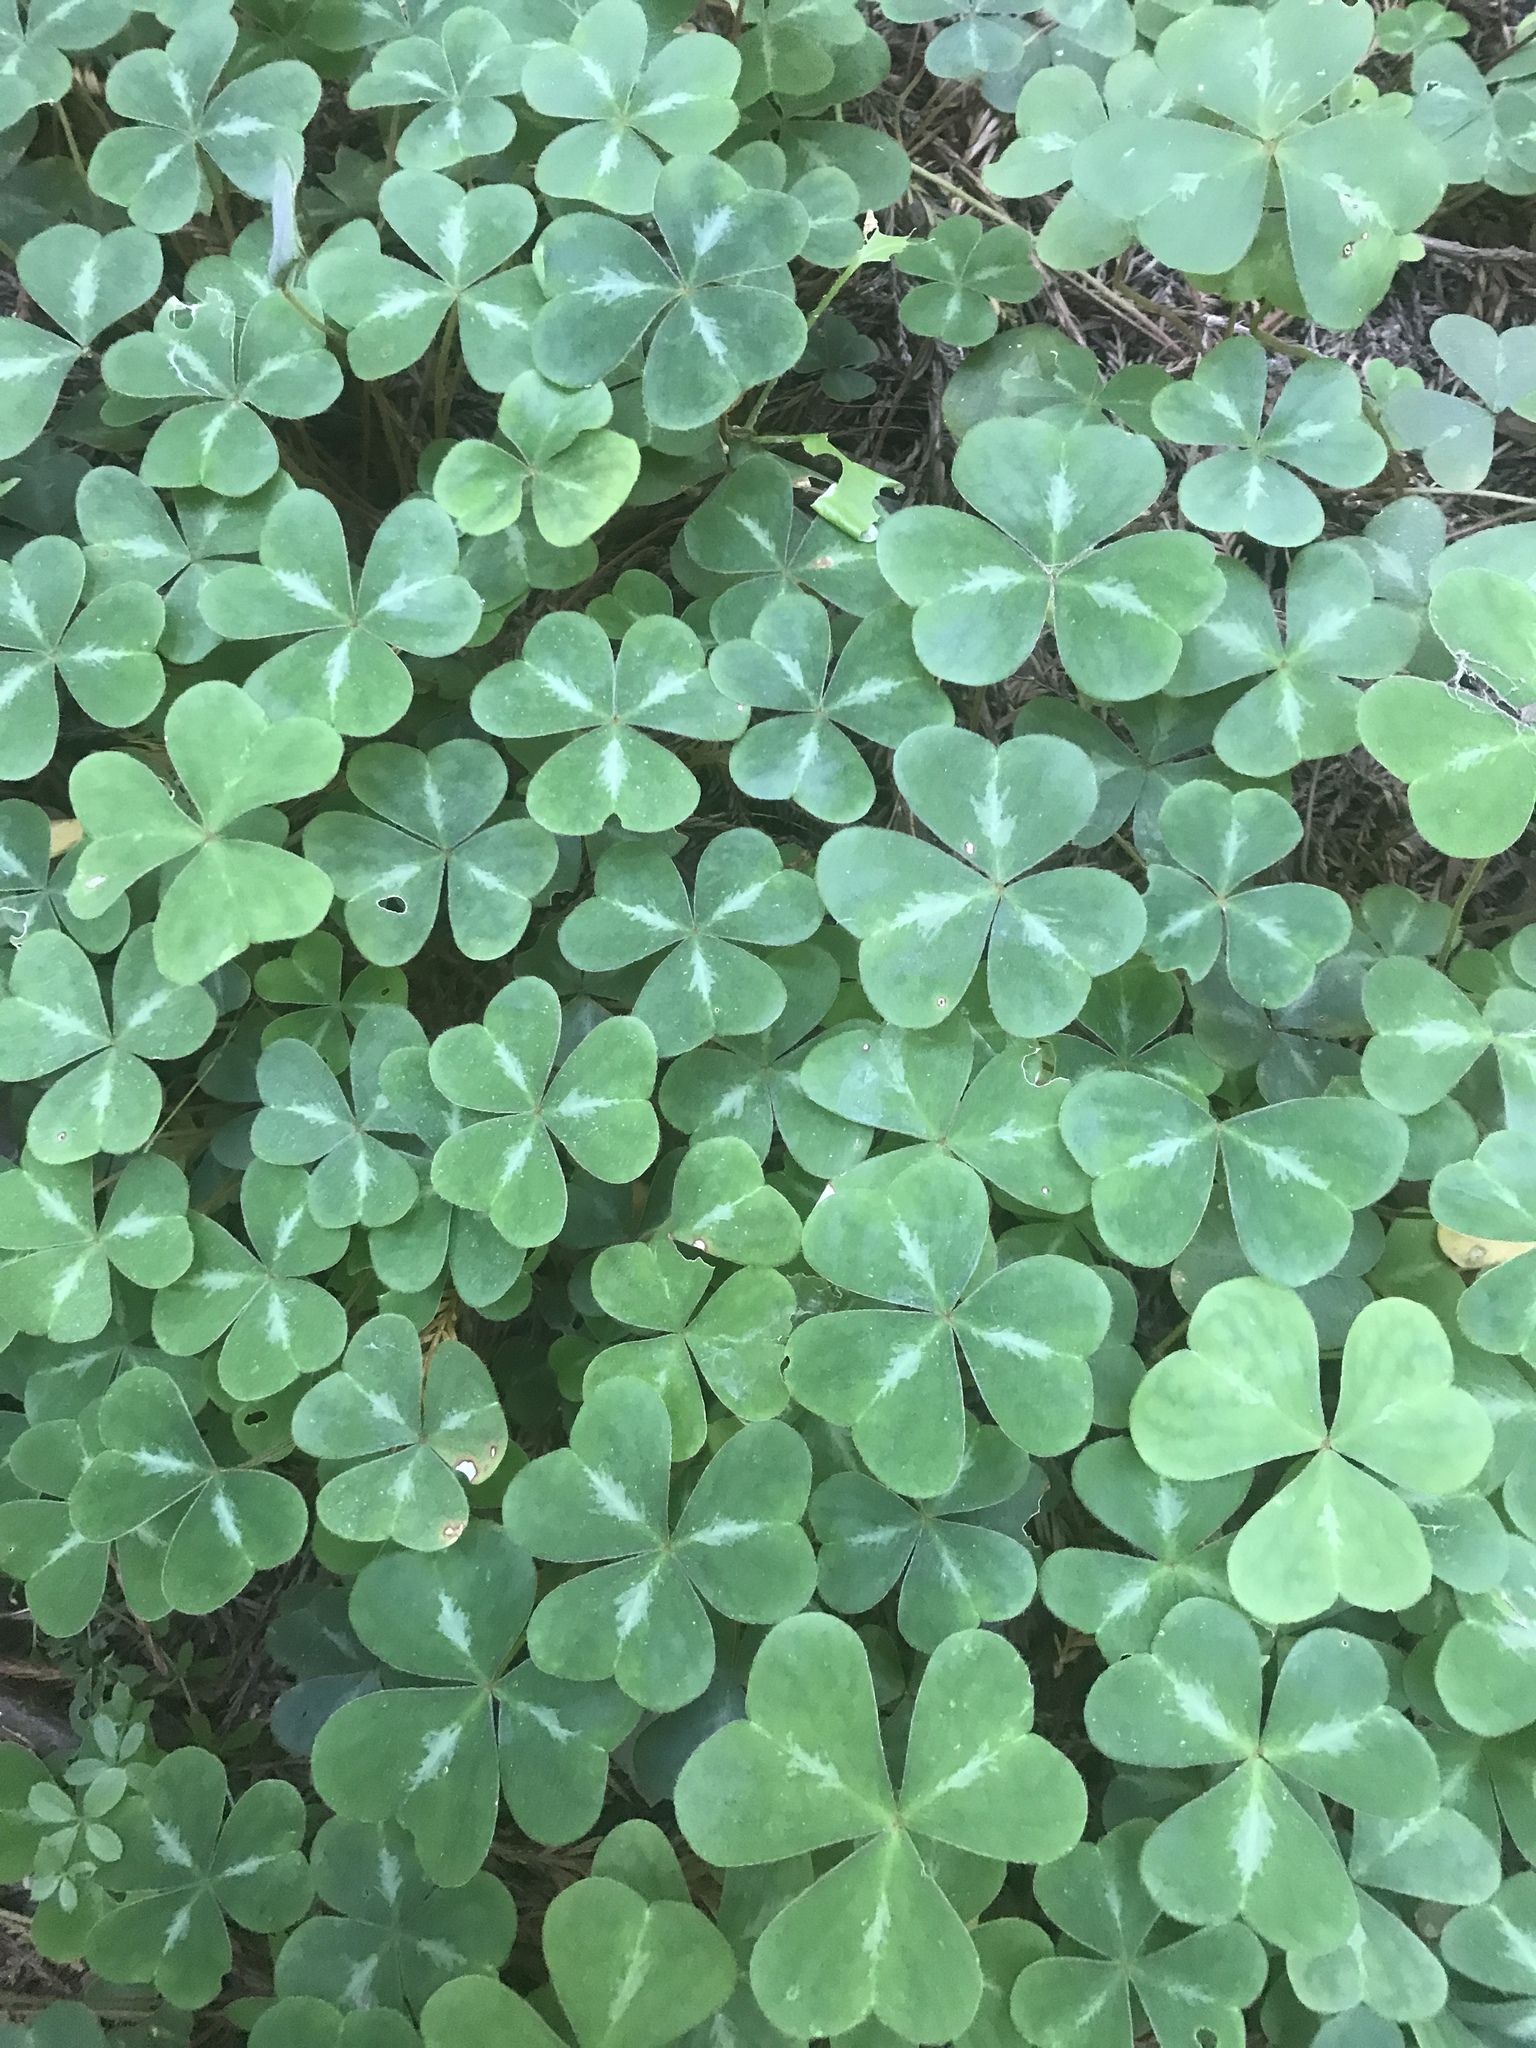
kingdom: Plantae
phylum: Tracheophyta
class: Magnoliopsida
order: Oxalidales
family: Oxalidaceae
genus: Oxalis
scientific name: Oxalis oregana
